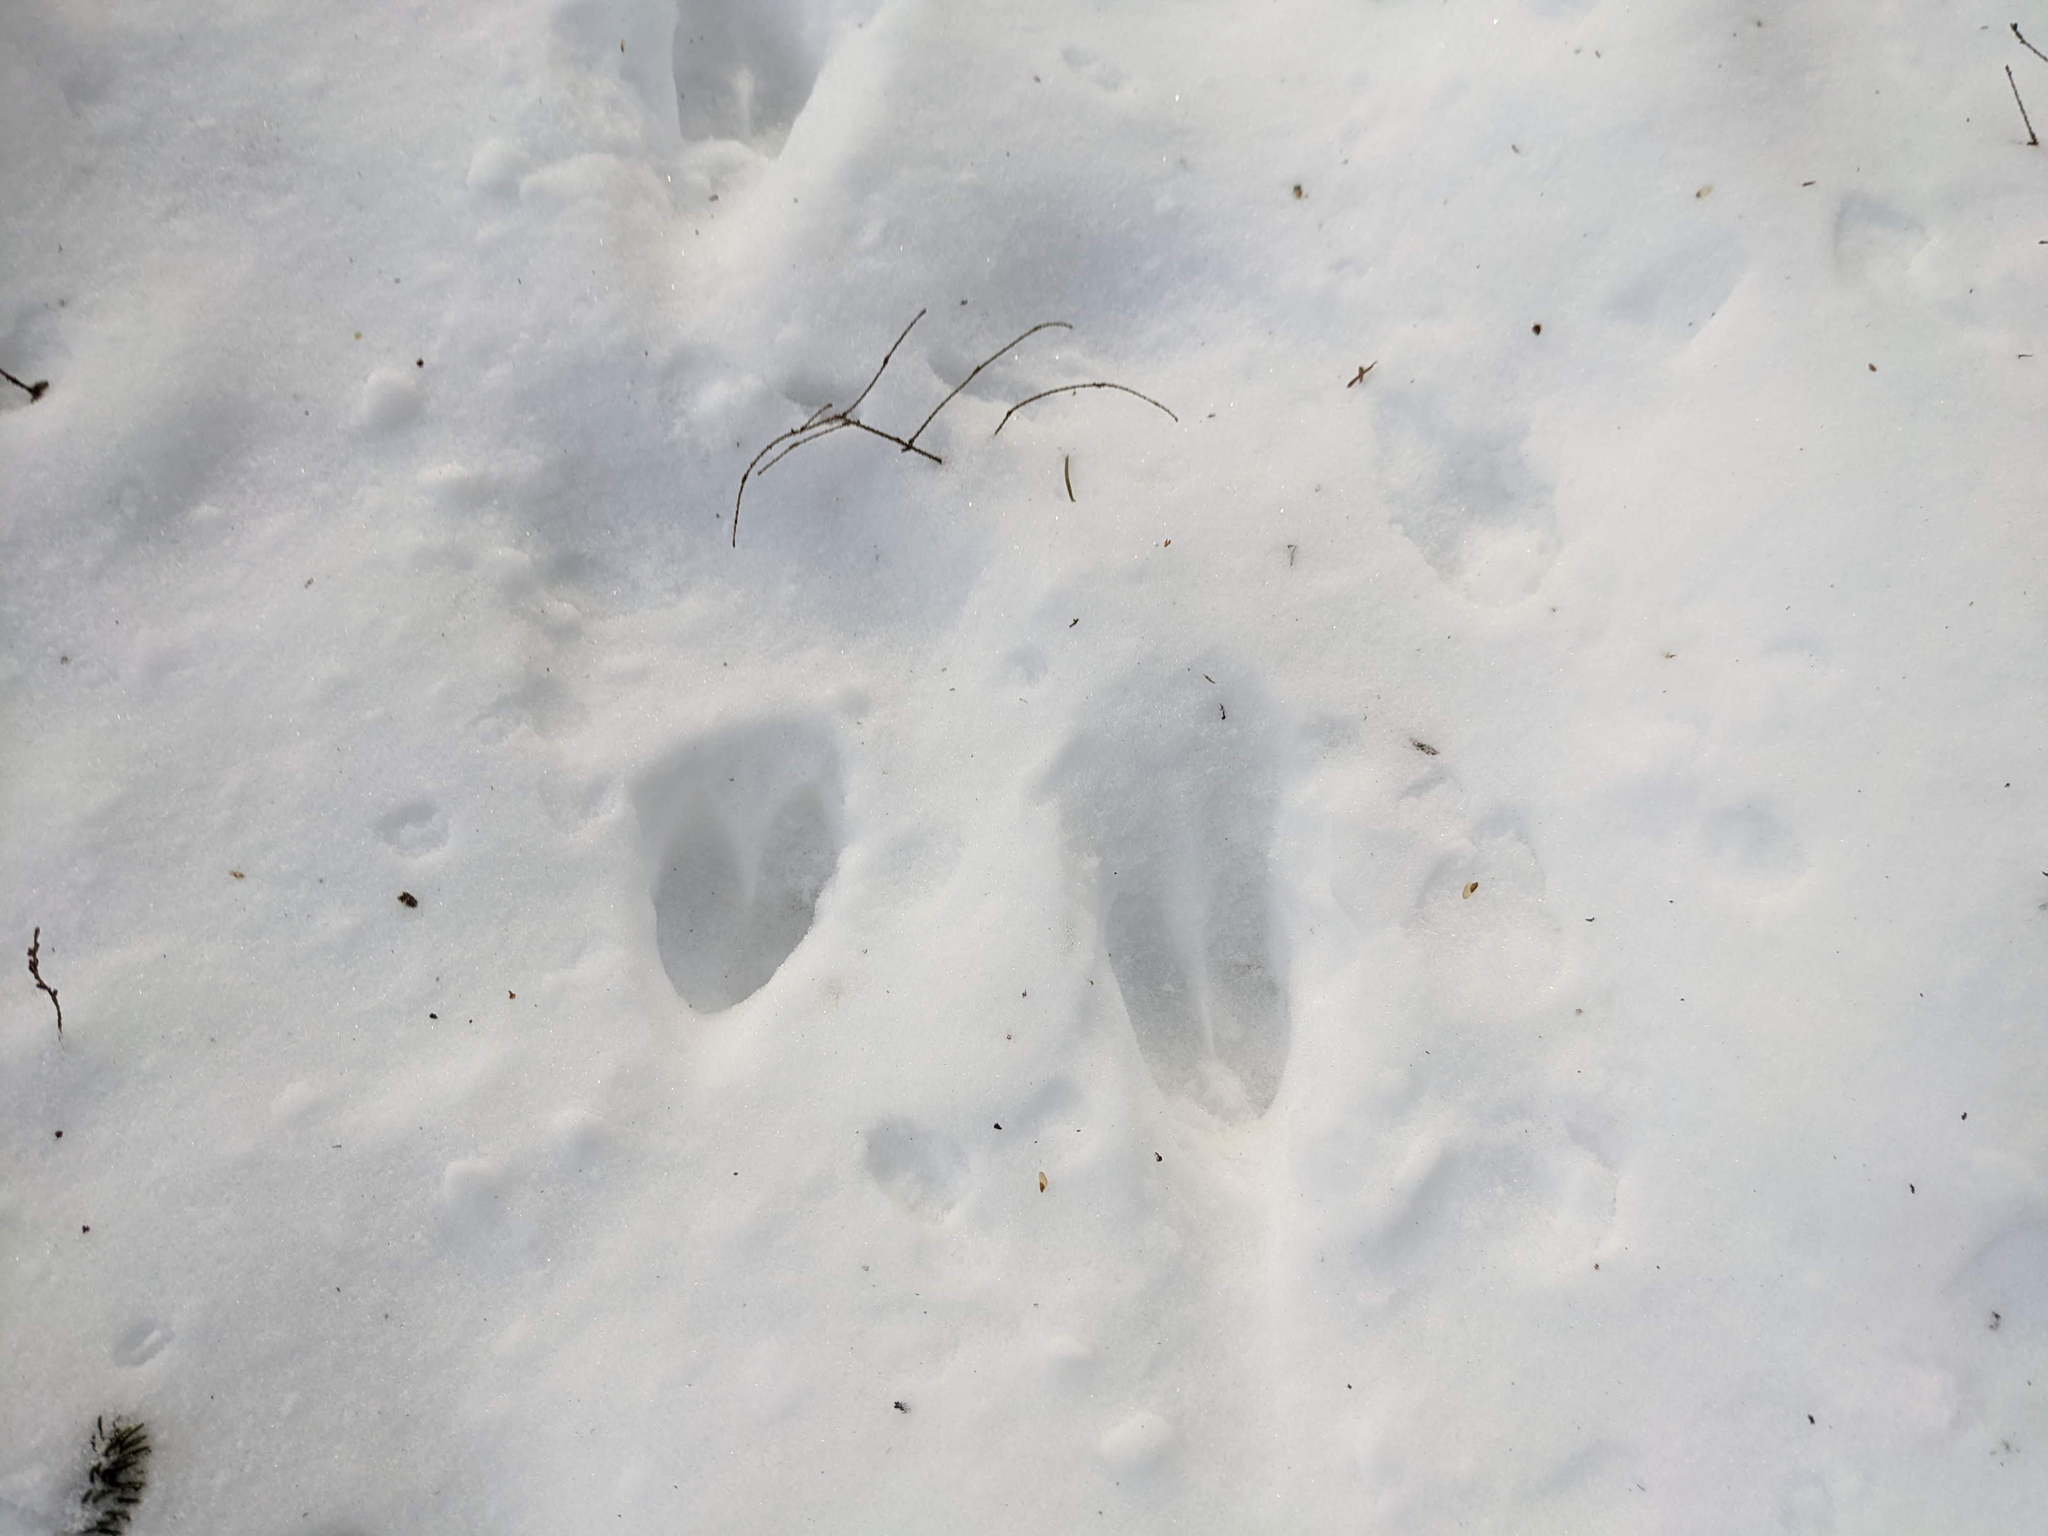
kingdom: Animalia
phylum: Chordata
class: Mammalia
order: Artiodactyla
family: Cervidae
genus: Odocoileus
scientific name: Odocoileus virginianus
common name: White-tailed deer
